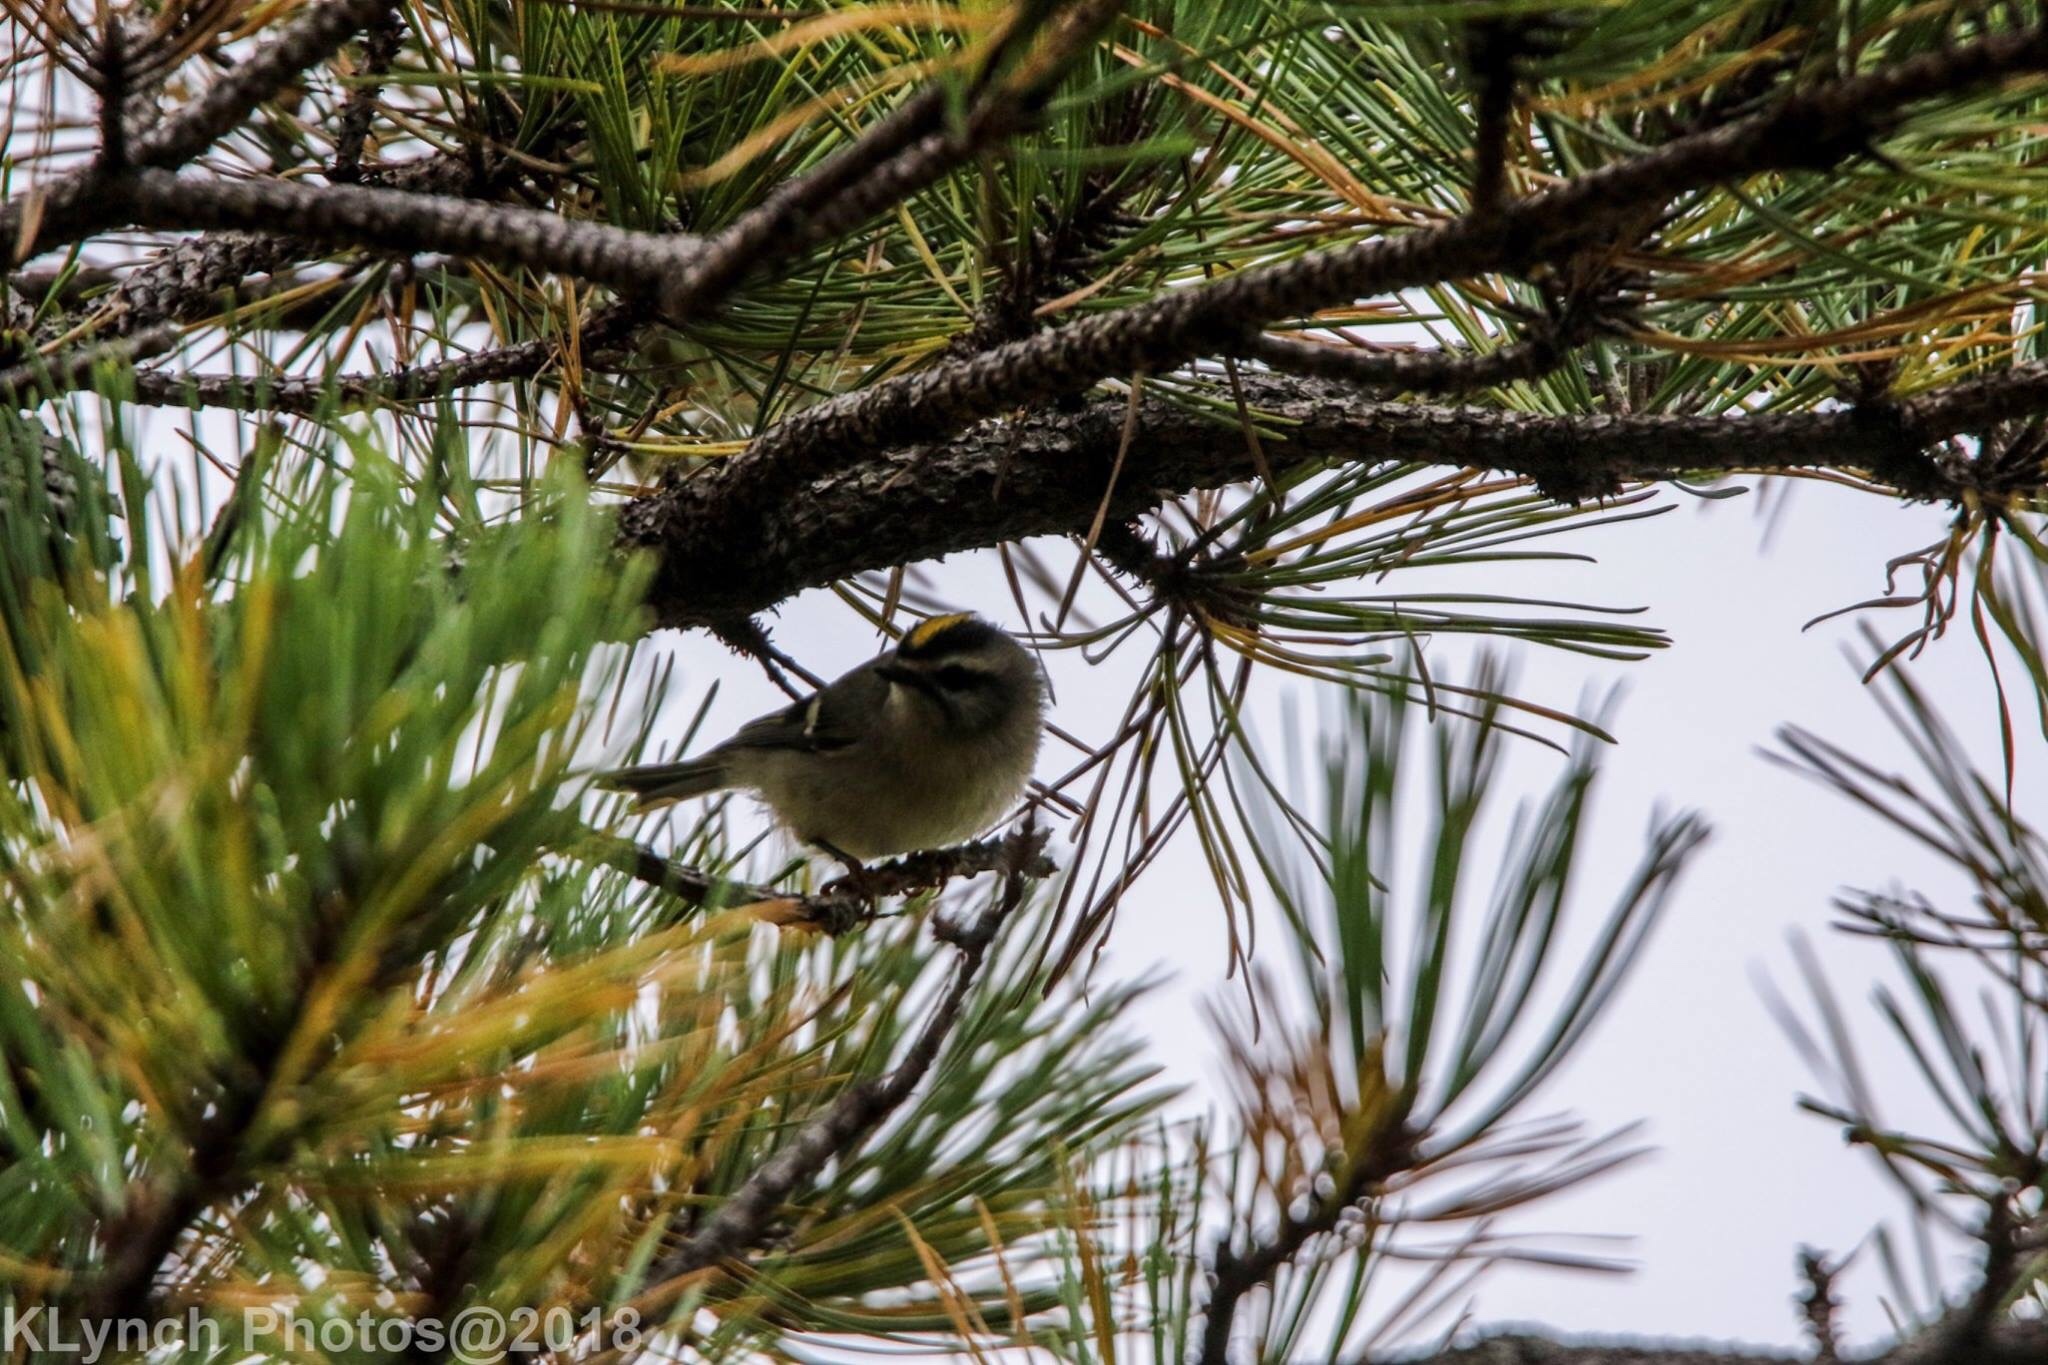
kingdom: Animalia
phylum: Chordata
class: Aves
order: Passeriformes
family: Regulidae
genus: Regulus
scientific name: Regulus satrapa
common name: Golden-crowned kinglet
